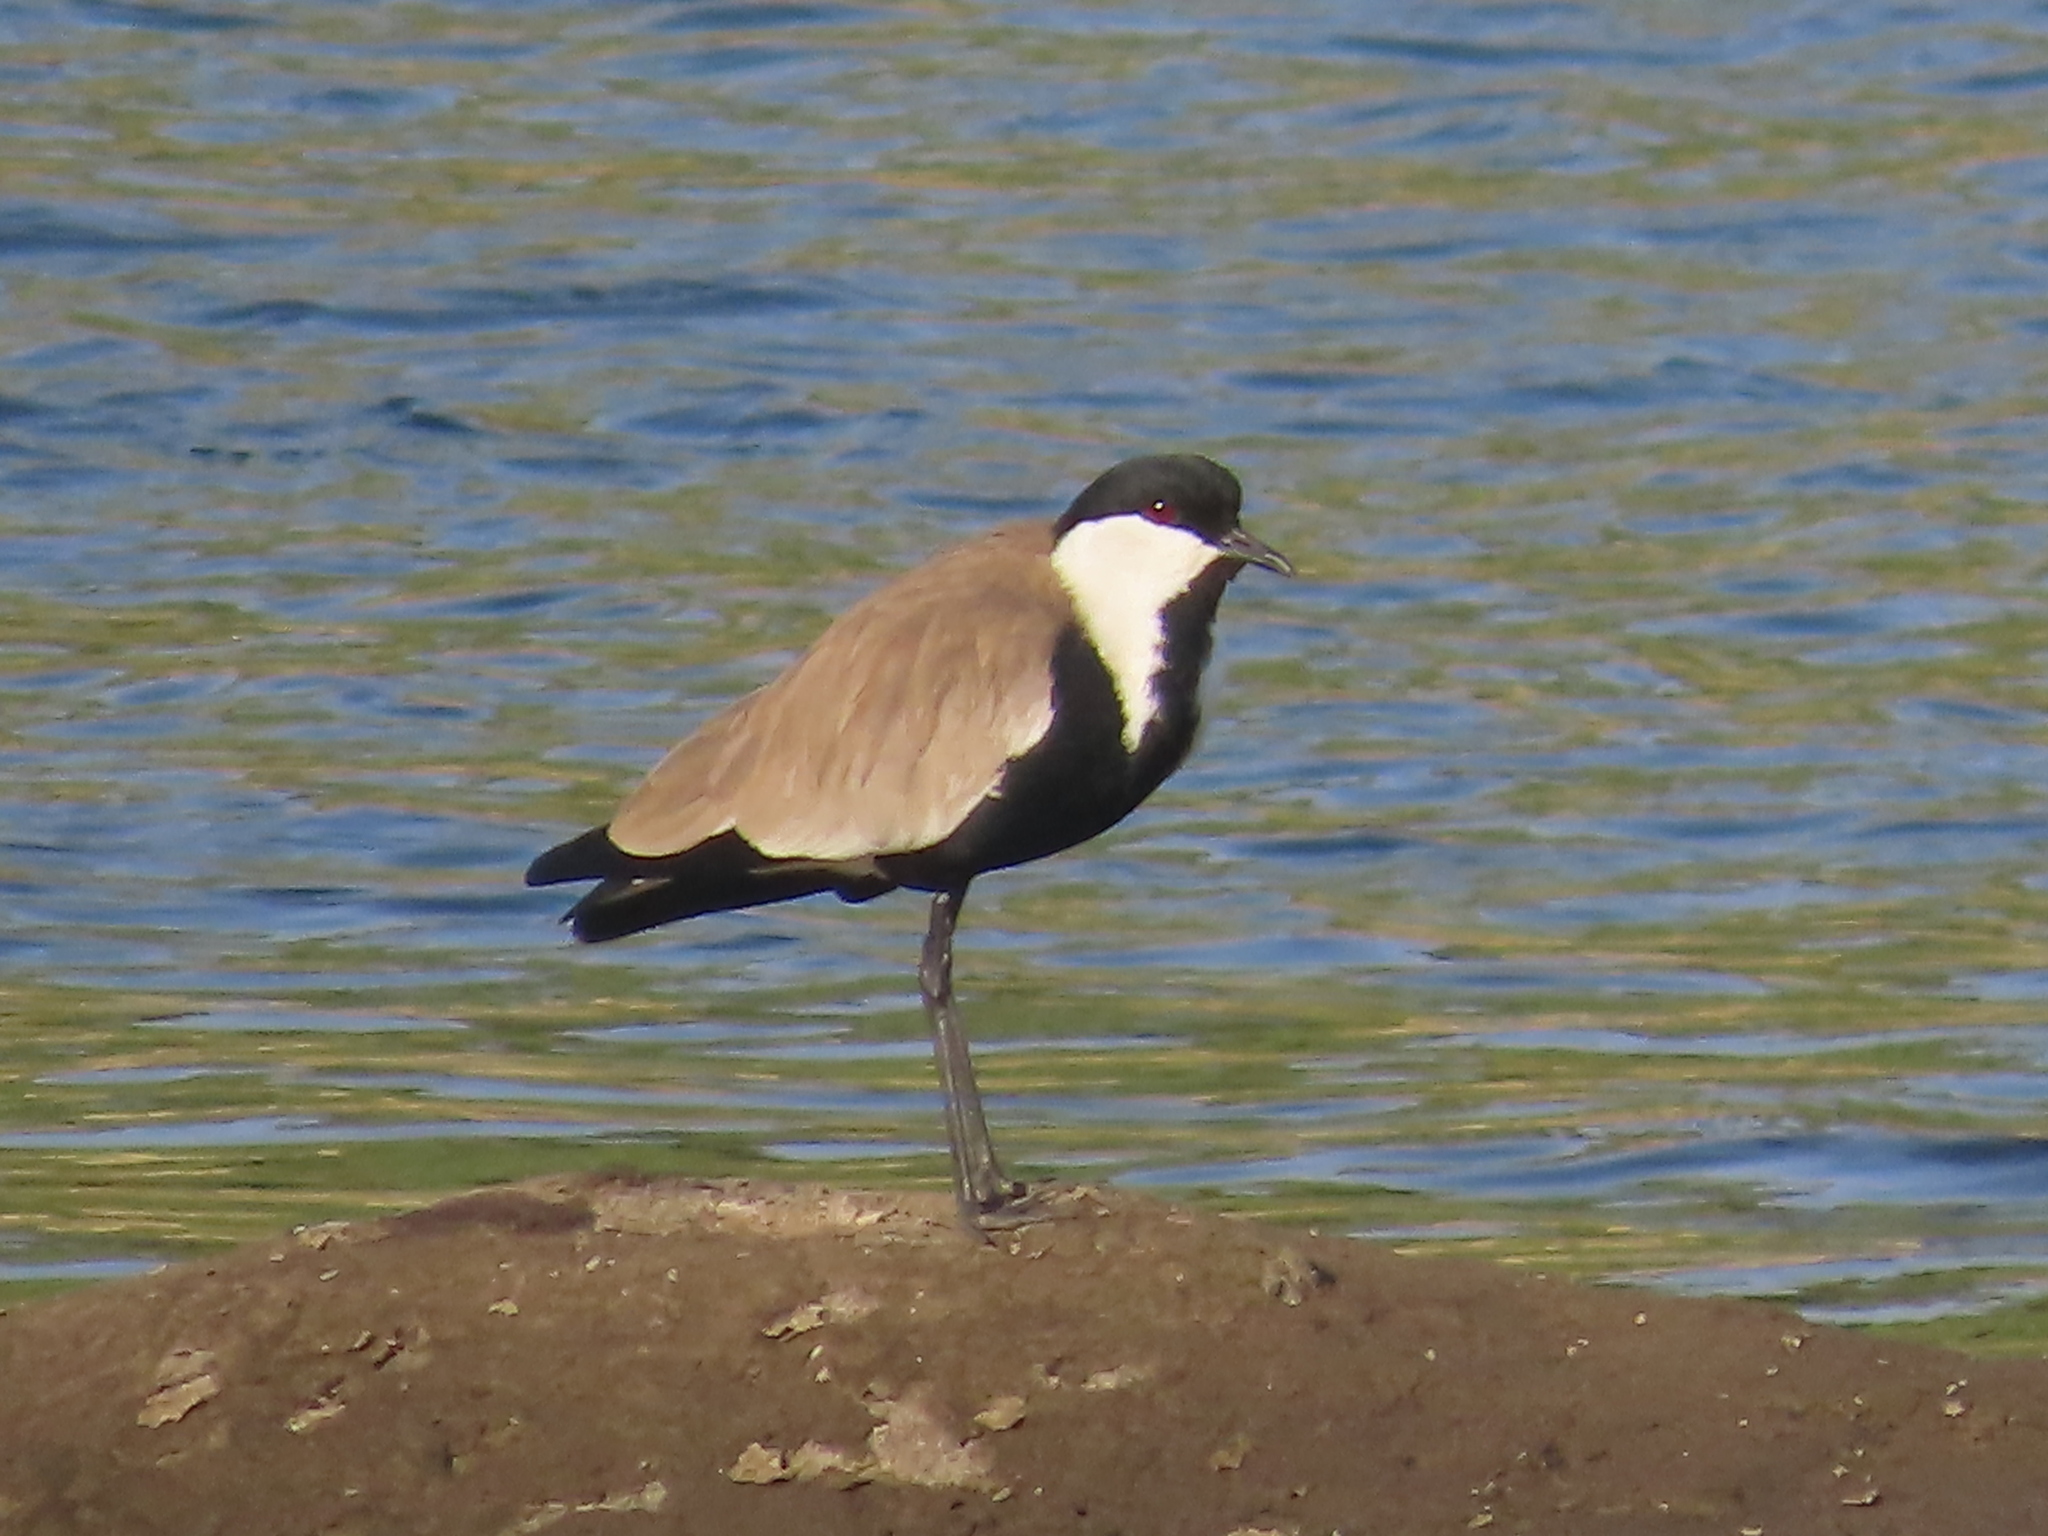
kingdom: Animalia
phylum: Chordata
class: Aves
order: Charadriiformes
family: Charadriidae
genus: Vanellus
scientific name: Vanellus spinosus
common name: Spur-winged lapwing
